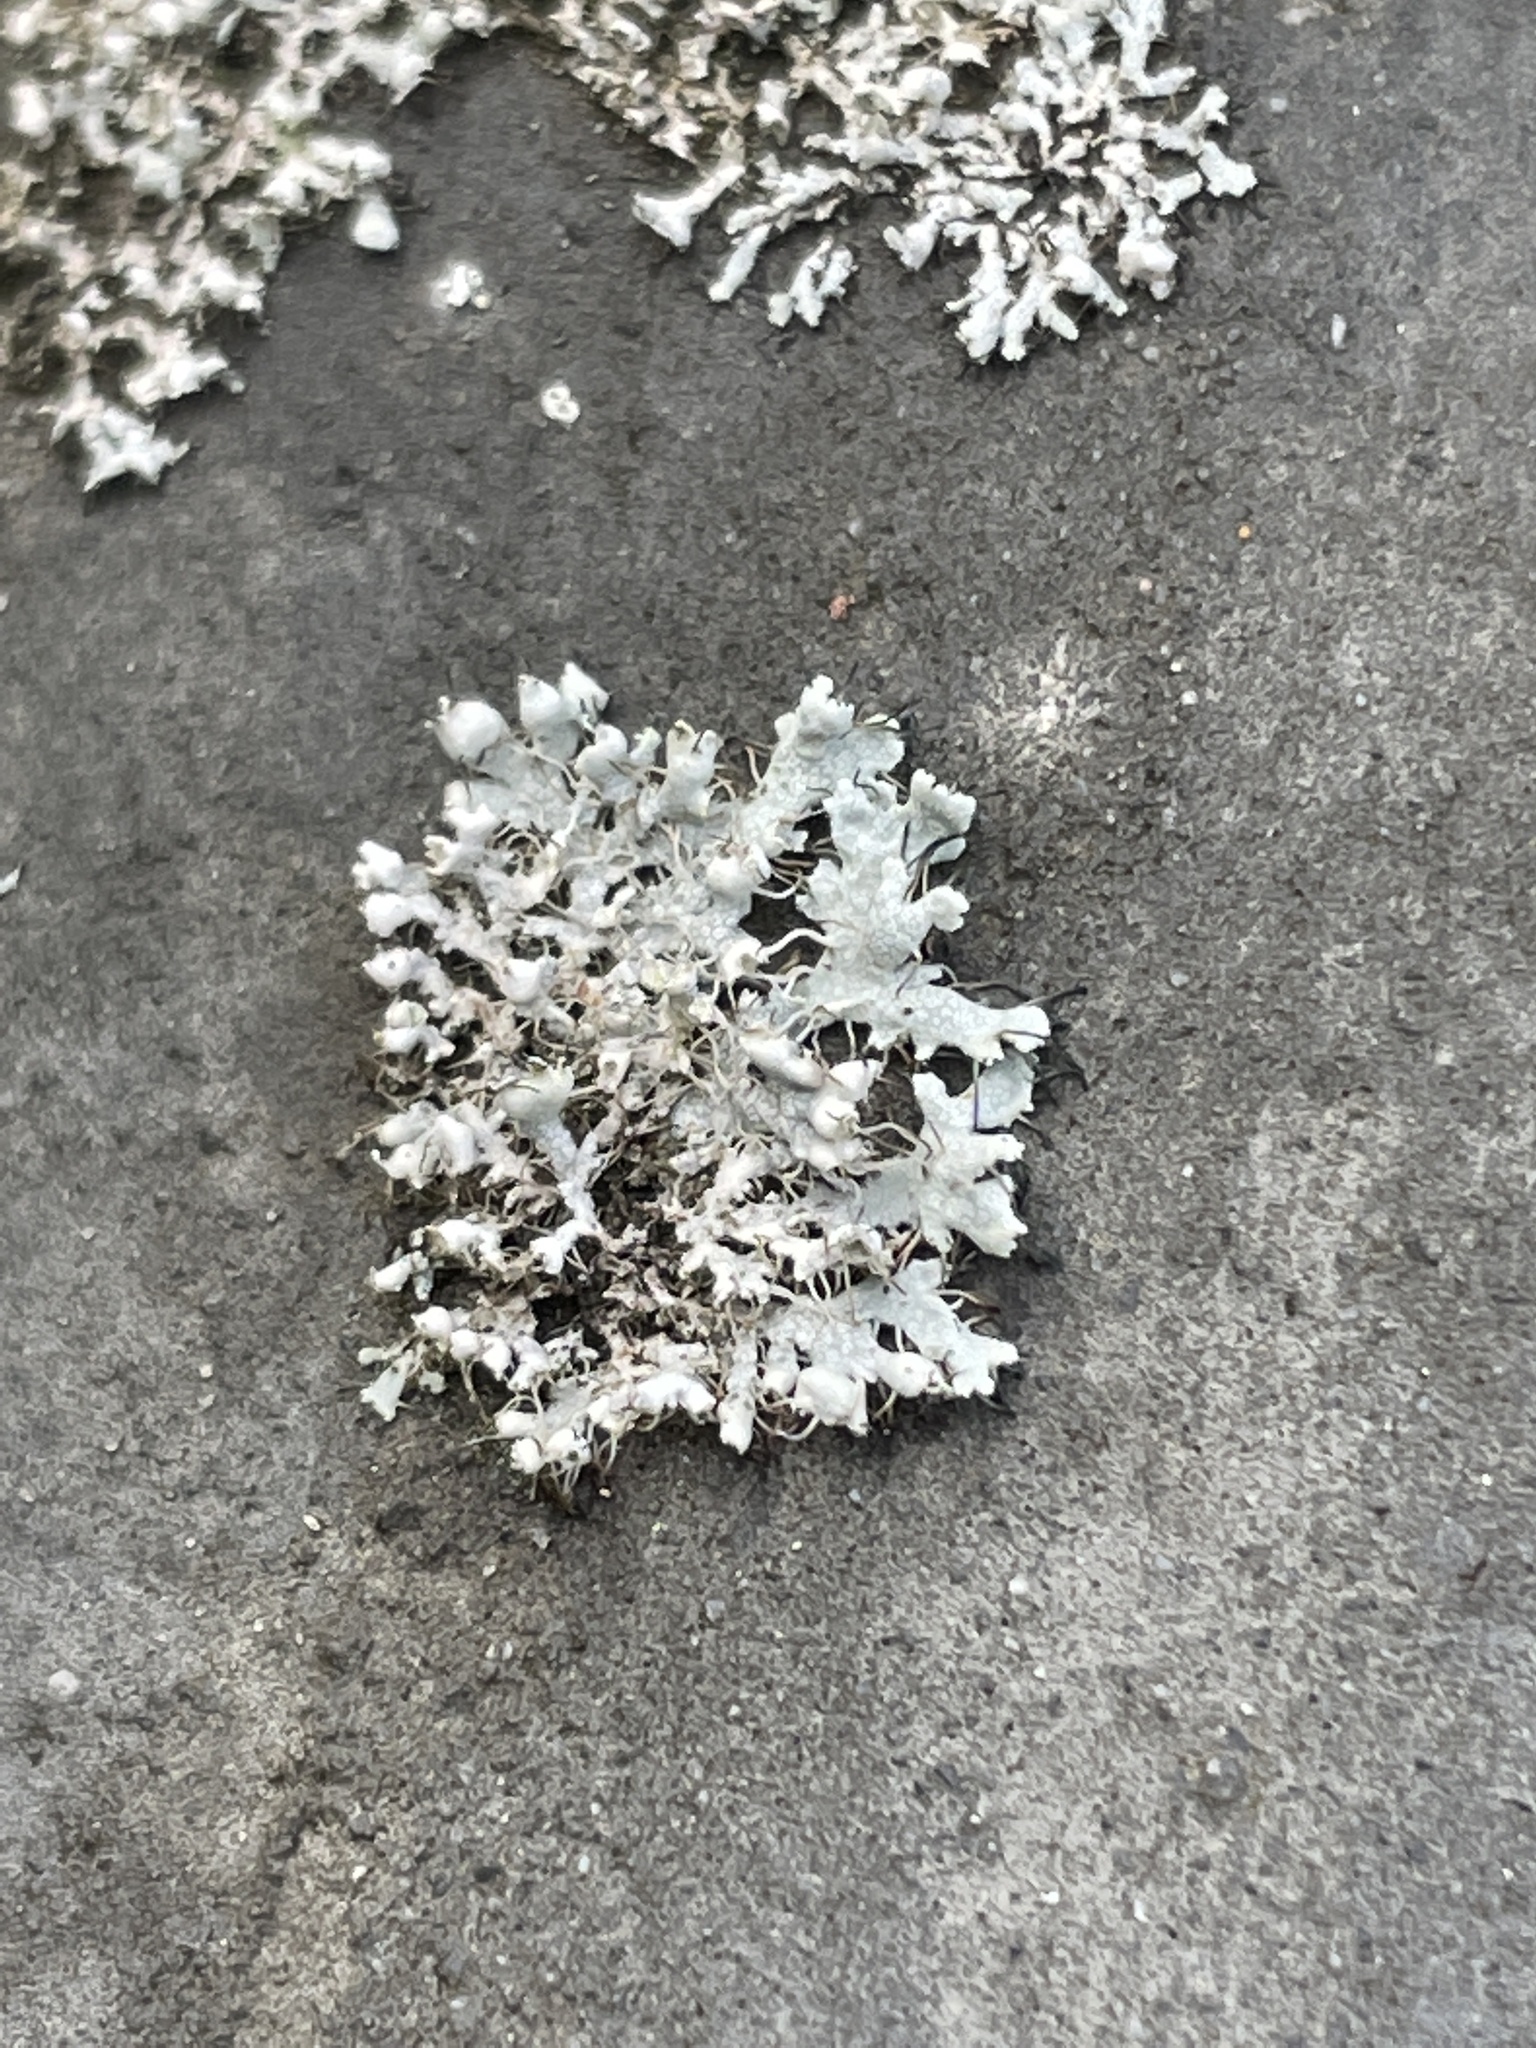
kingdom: Fungi
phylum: Ascomycota
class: Lecanoromycetes
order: Caliciales
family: Physciaceae
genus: Physcia
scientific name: Physcia adscendens
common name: Hooded rosette lichen
